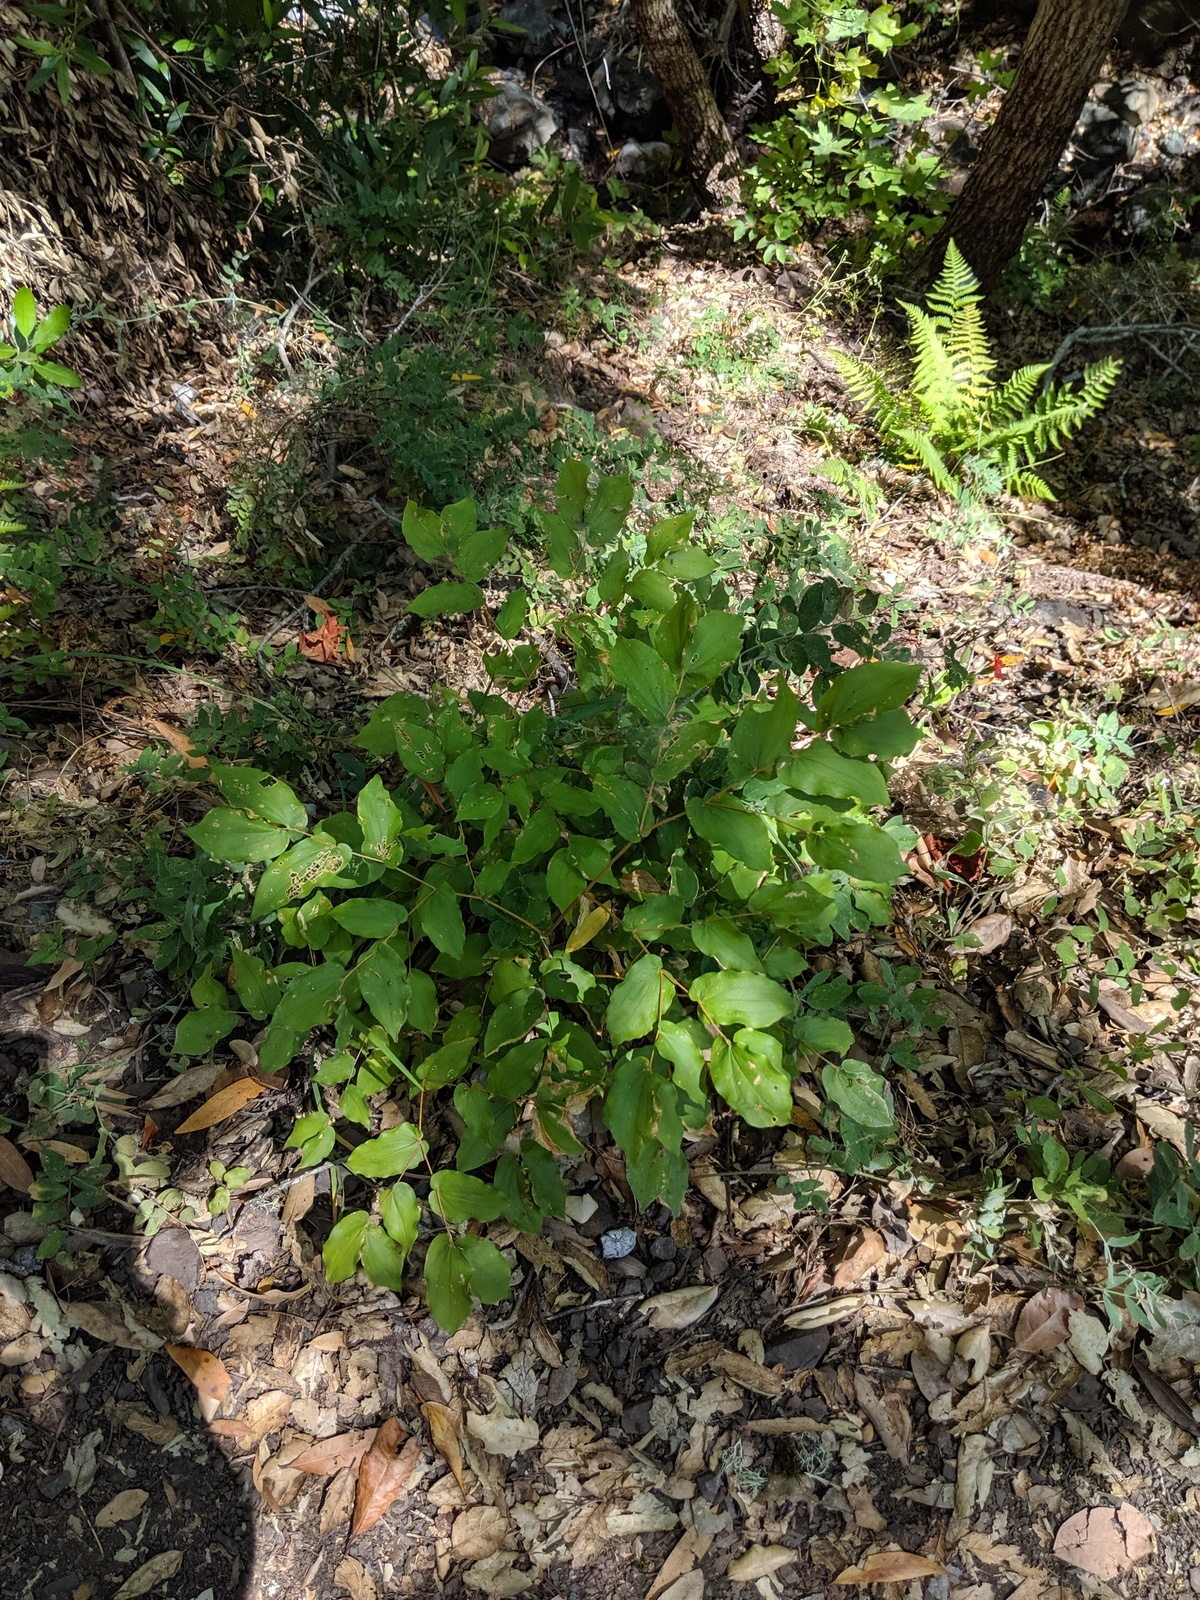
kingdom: Plantae
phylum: Tracheophyta
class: Liliopsida
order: Liliales
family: Liliaceae
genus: Prosartes
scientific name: Prosartes hookeri
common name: Fairy-bells
